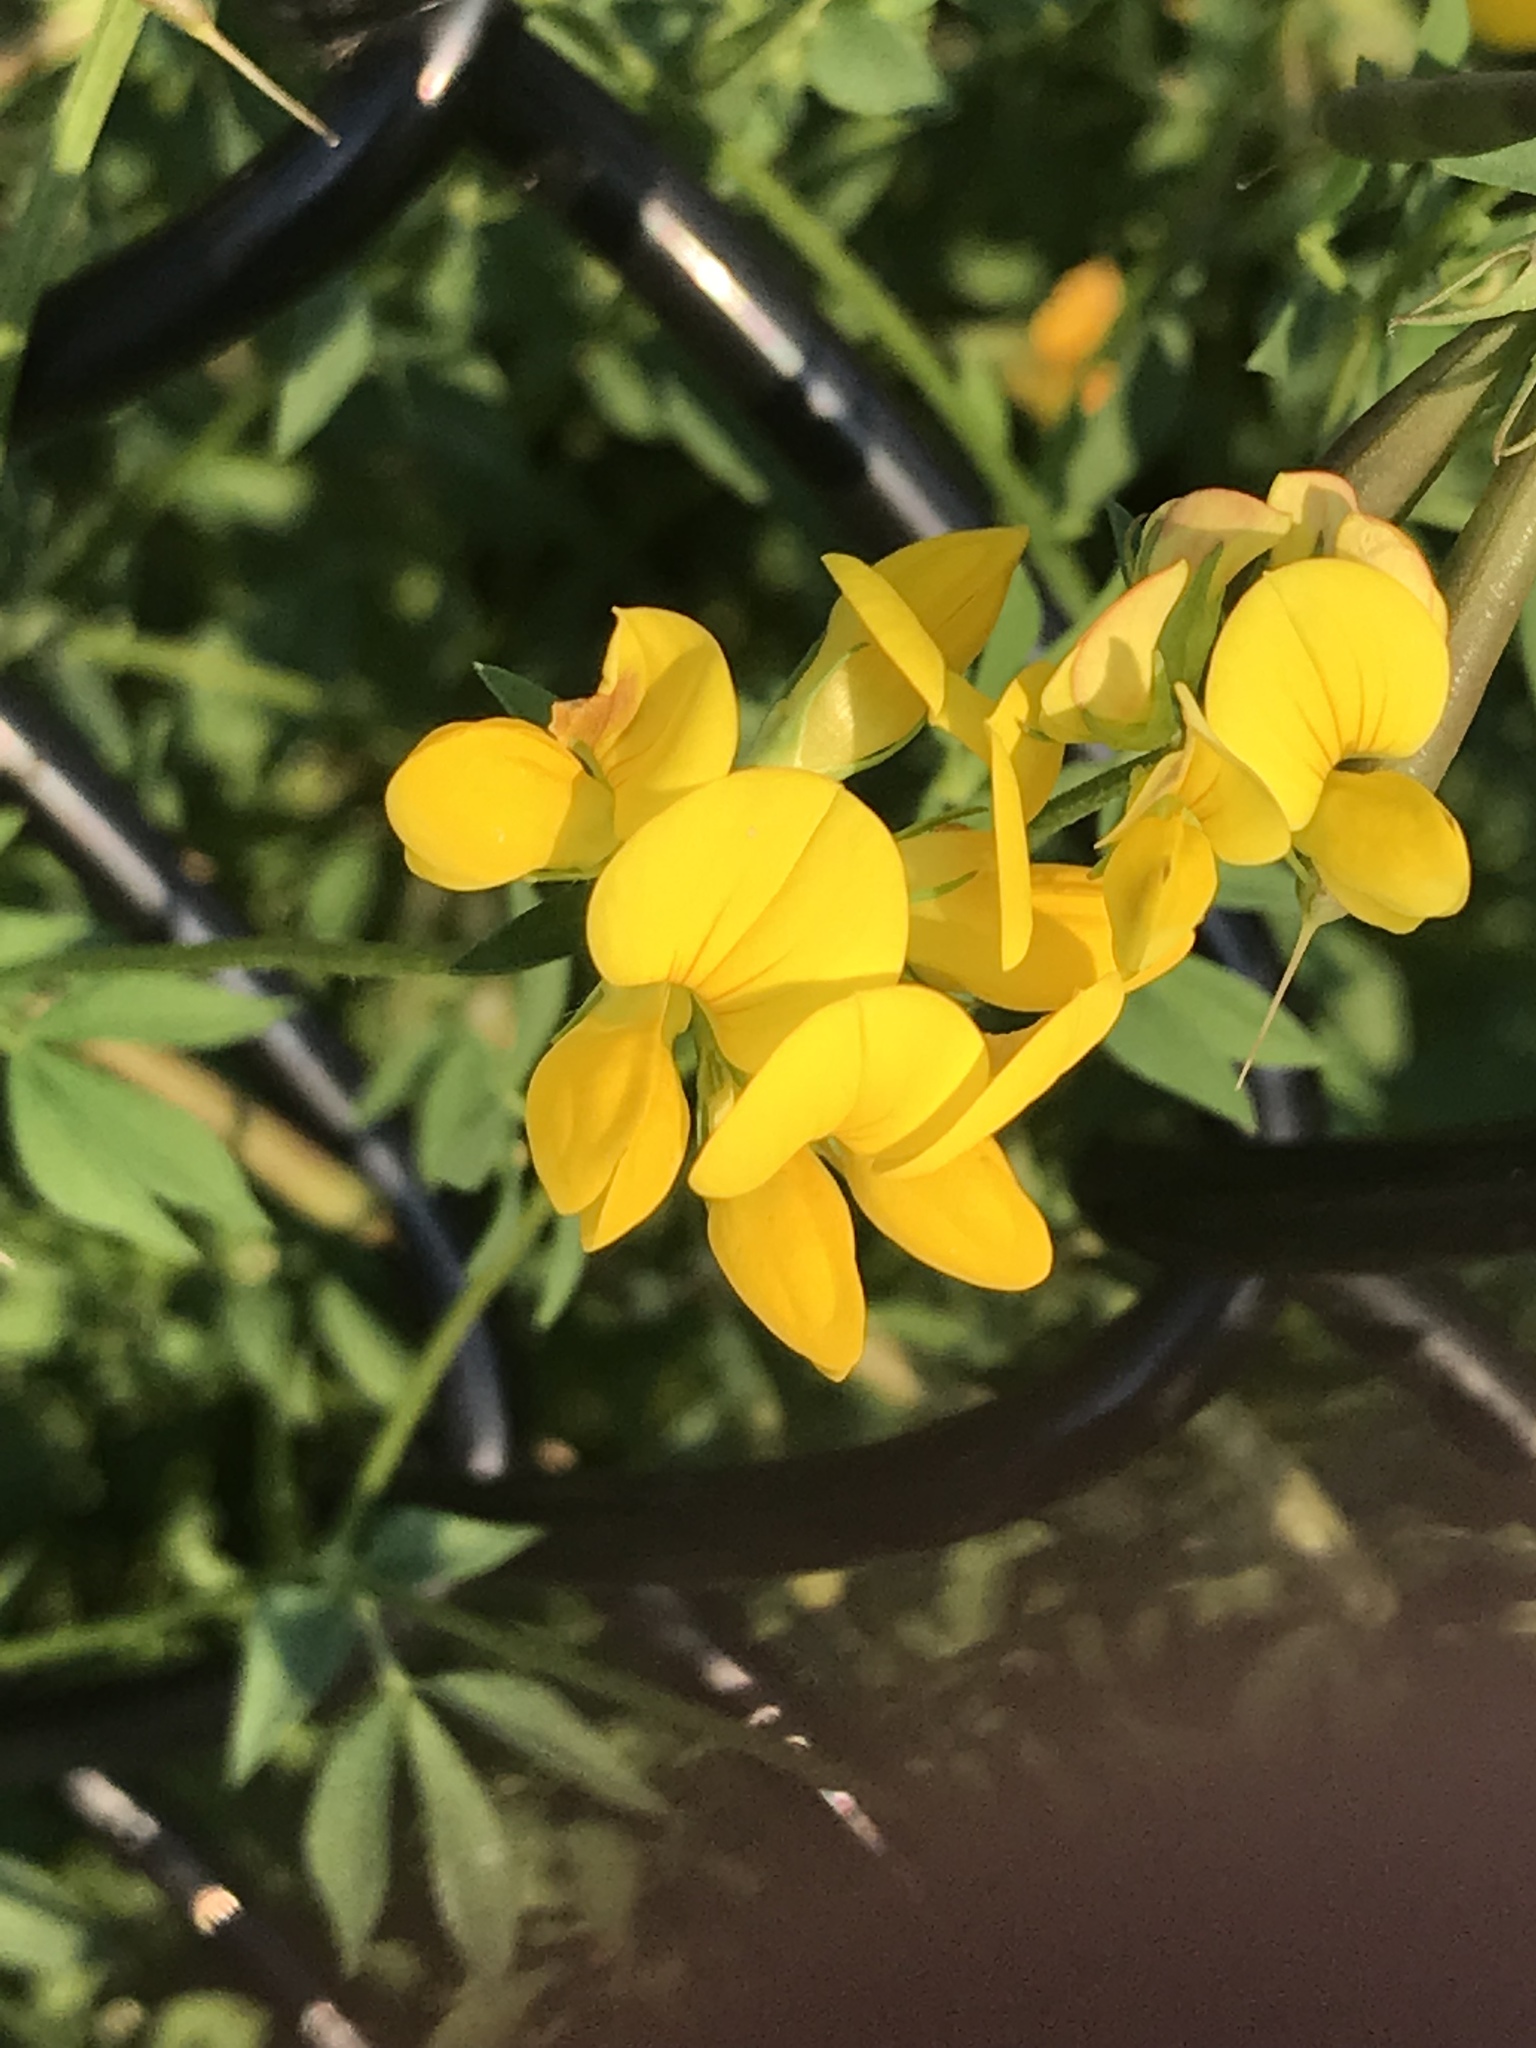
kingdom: Plantae
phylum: Tracheophyta
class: Magnoliopsida
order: Fabales
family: Fabaceae
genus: Lotus
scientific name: Lotus corniculatus
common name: Common bird's-foot-trefoil
